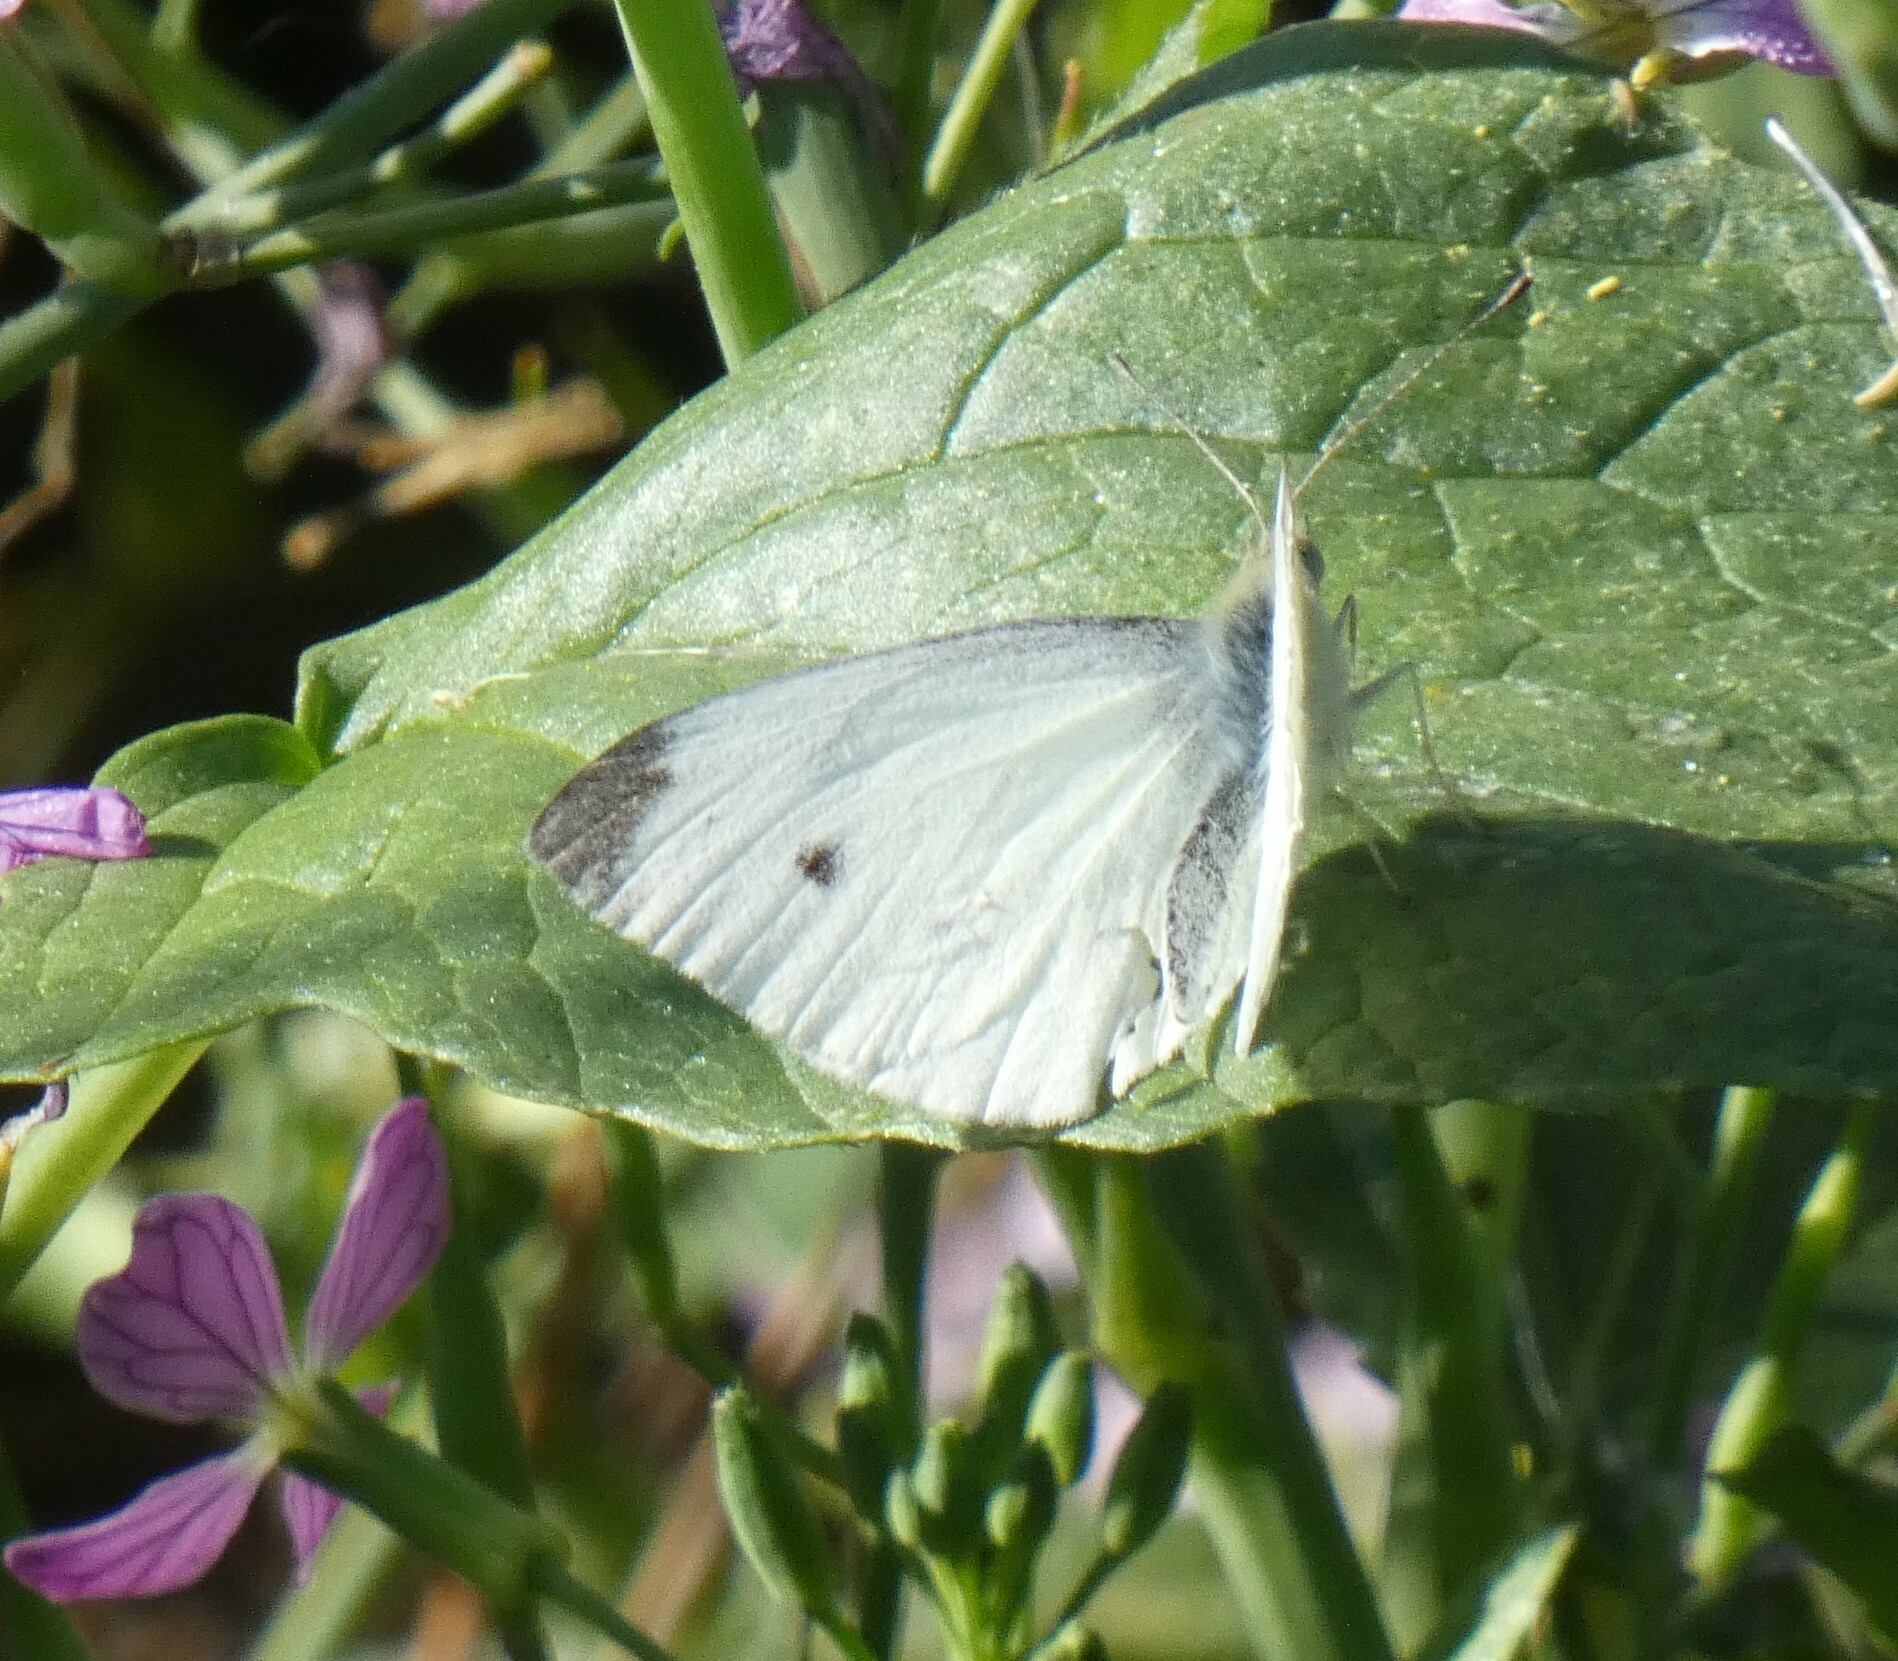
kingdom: Animalia
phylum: Arthropoda
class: Insecta
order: Lepidoptera
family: Pieridae
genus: Pieris
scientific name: Pieris rapae
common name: Small white
